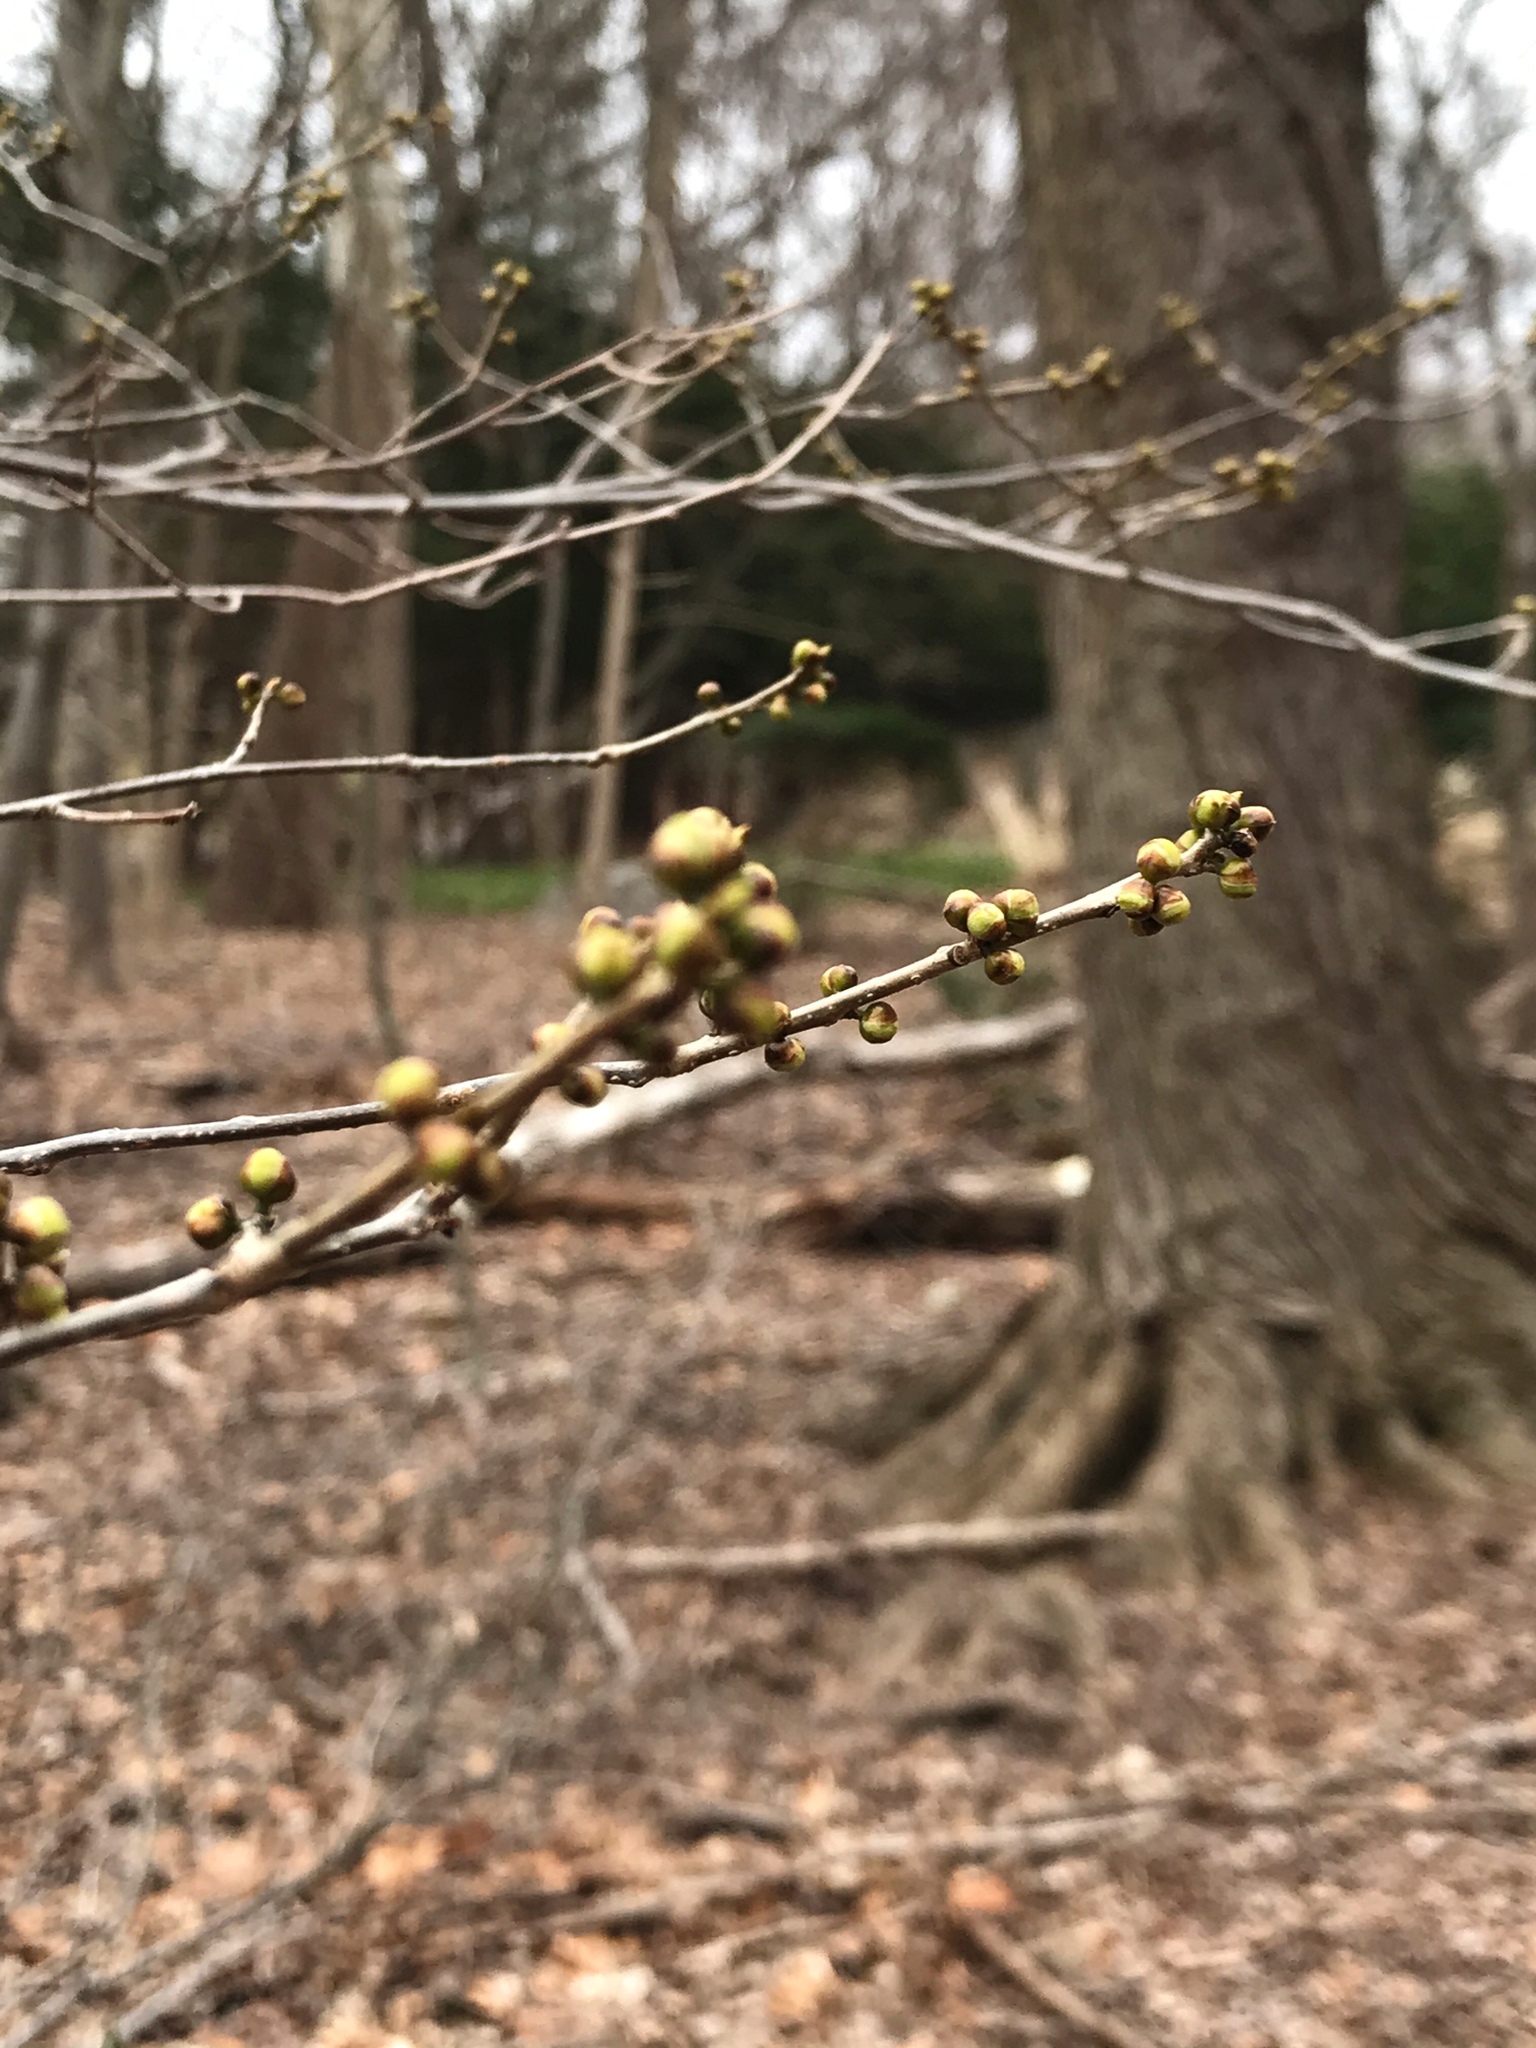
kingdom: Plantae
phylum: Tracheophyta
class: Magnoliopsida
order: Laurales
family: Lauraceae
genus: Lindera
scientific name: Lindera benzoin
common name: Spicebush
